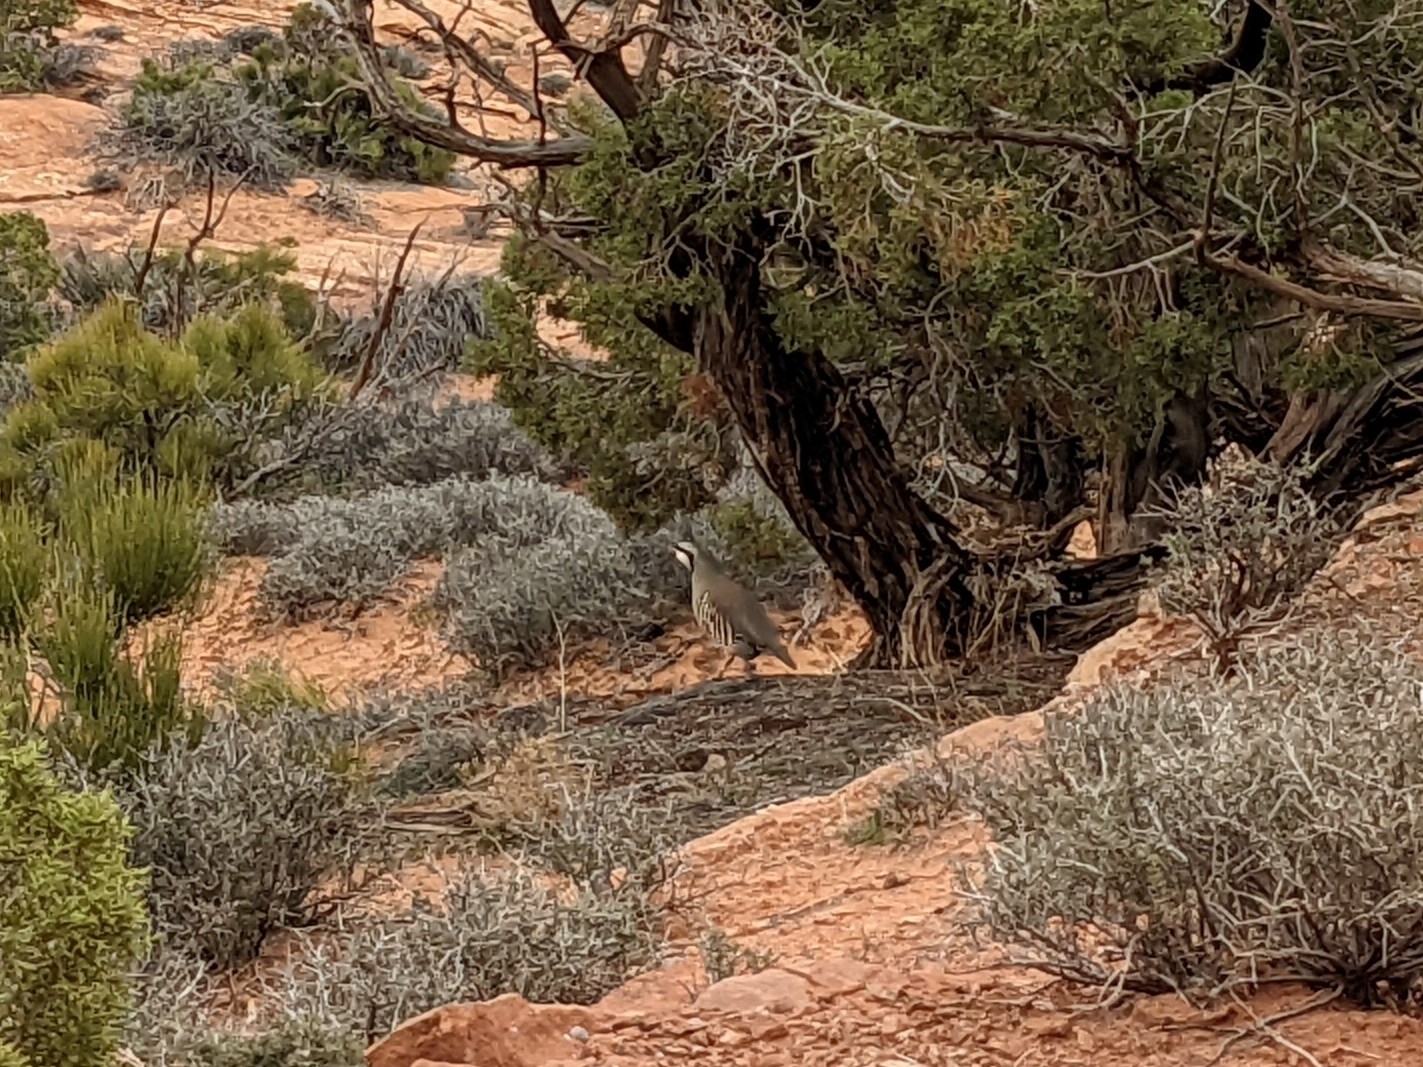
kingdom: Animalia
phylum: Chordata
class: Aves
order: Galliformes
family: Phasianidae
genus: Alectoris
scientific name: Alectoris chukar
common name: Chukar
